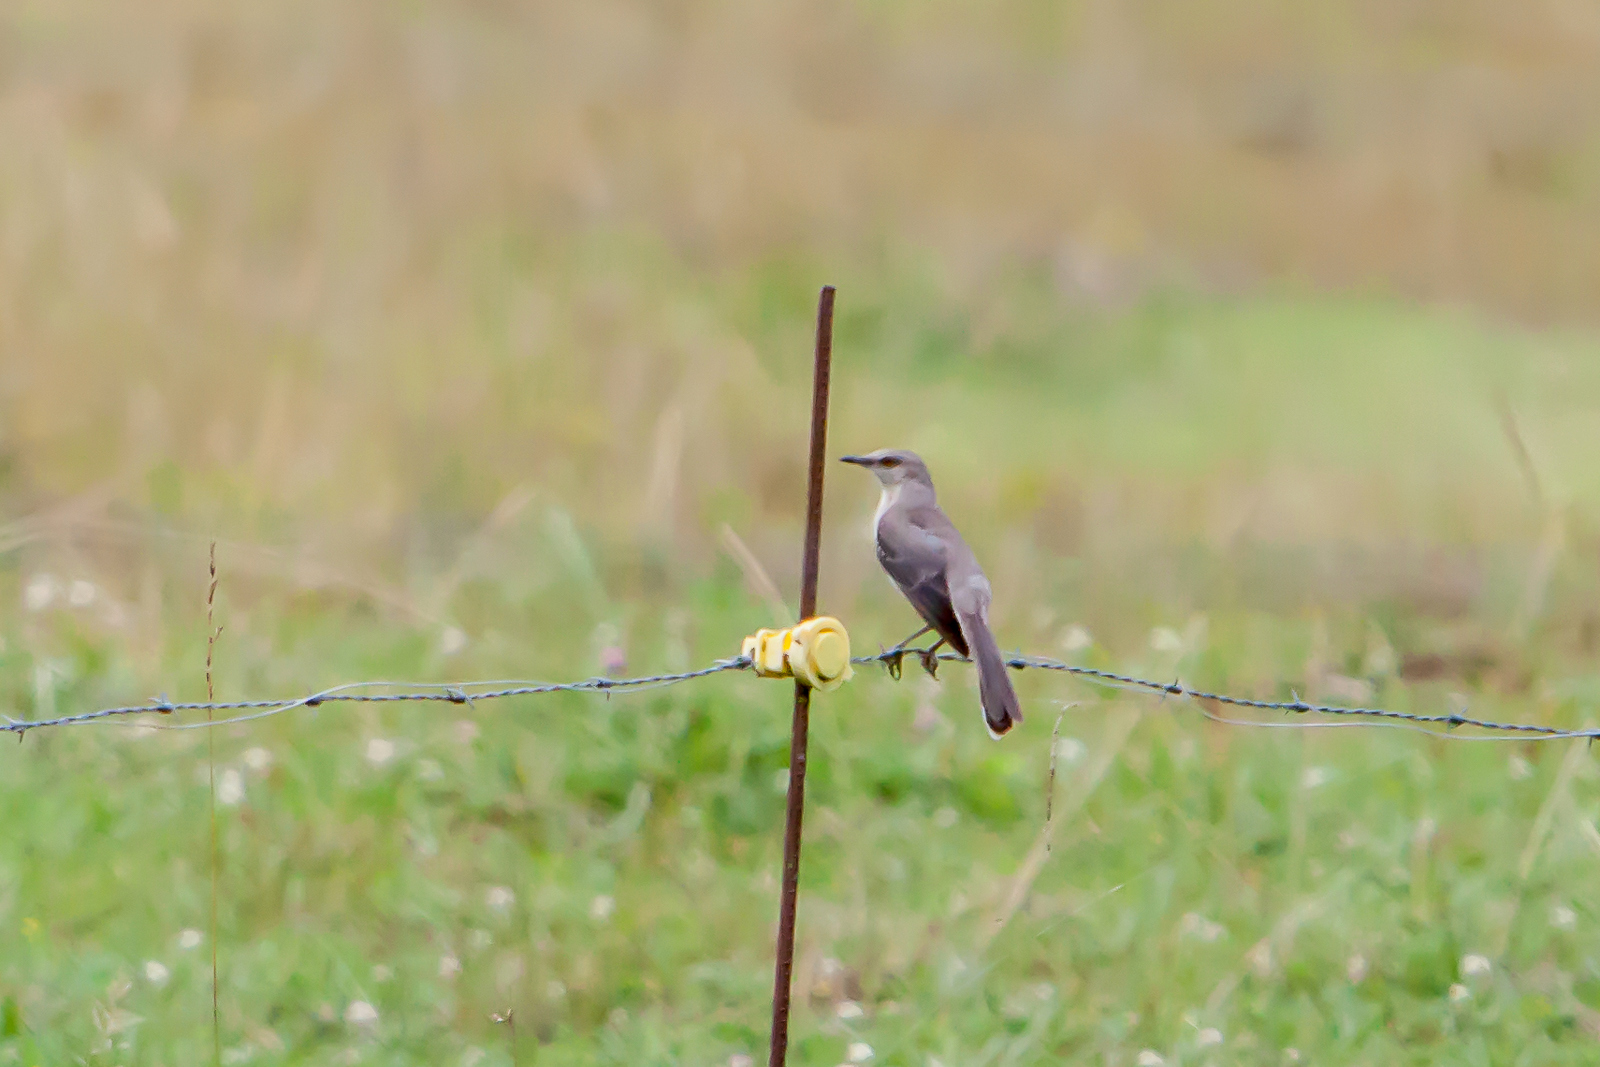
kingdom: Animalia
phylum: Chordata
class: Aves
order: Passeriformes
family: Mimidae
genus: Mimus
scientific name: Mimus polyglottos
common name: Northern mockingbird
